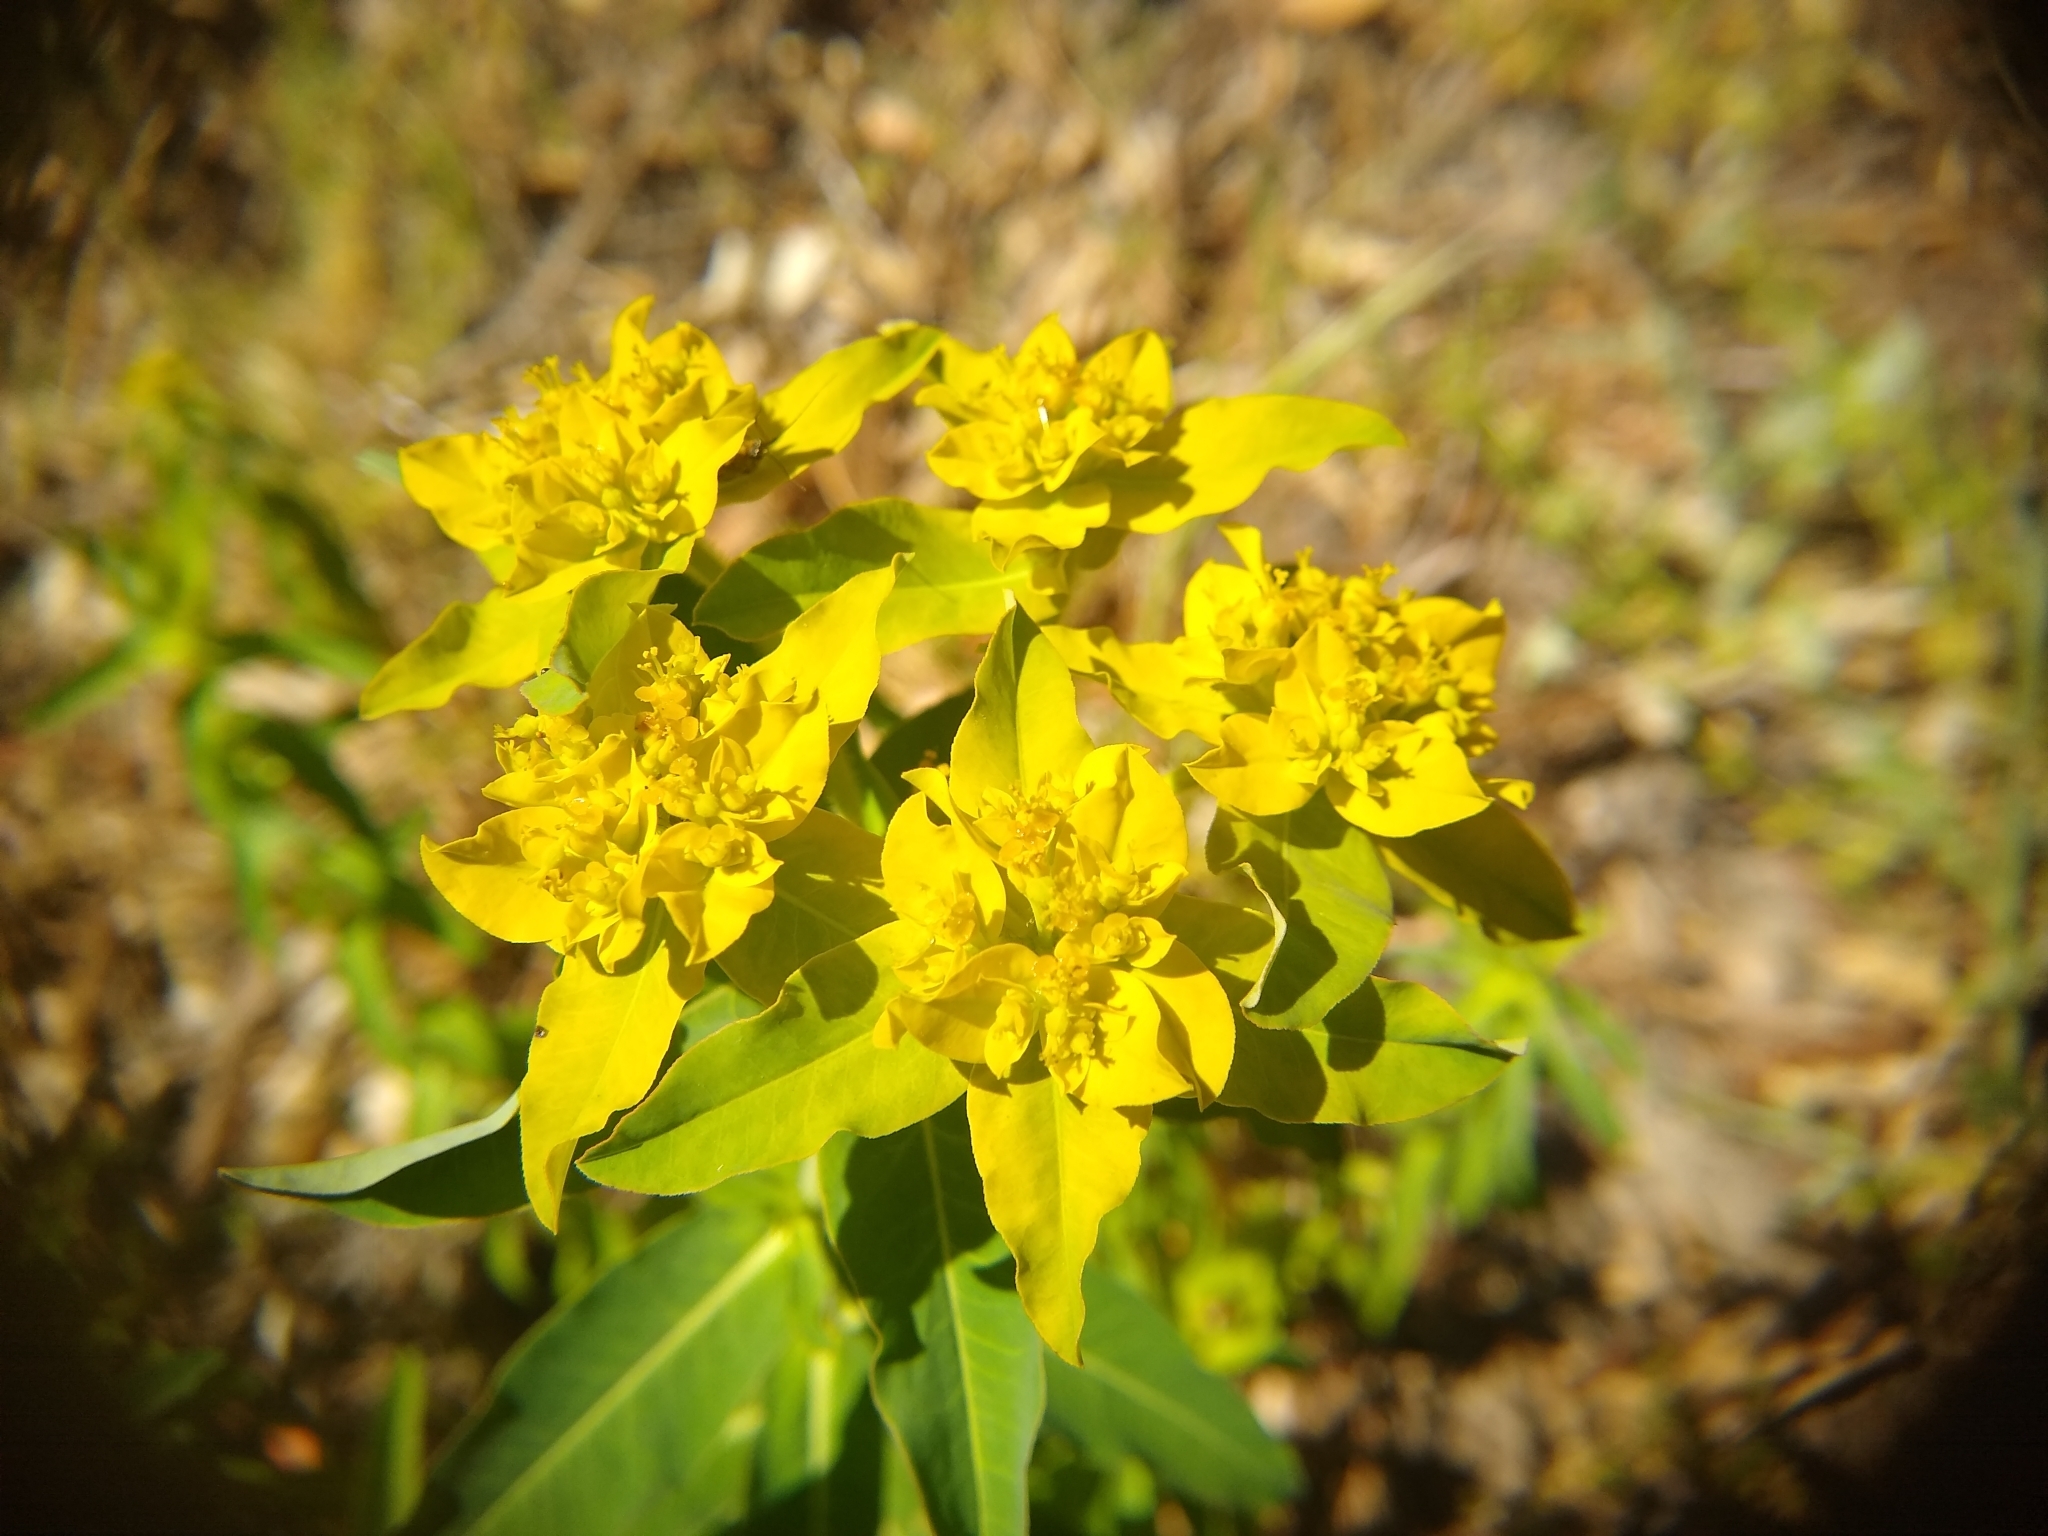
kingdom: Plantae
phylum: Tracheophyta
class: Magnoliopsida
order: Malpighiales
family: Euphorbiaceae
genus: Euphorbia
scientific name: Euphorbia oblongata
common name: Balkan spurge
